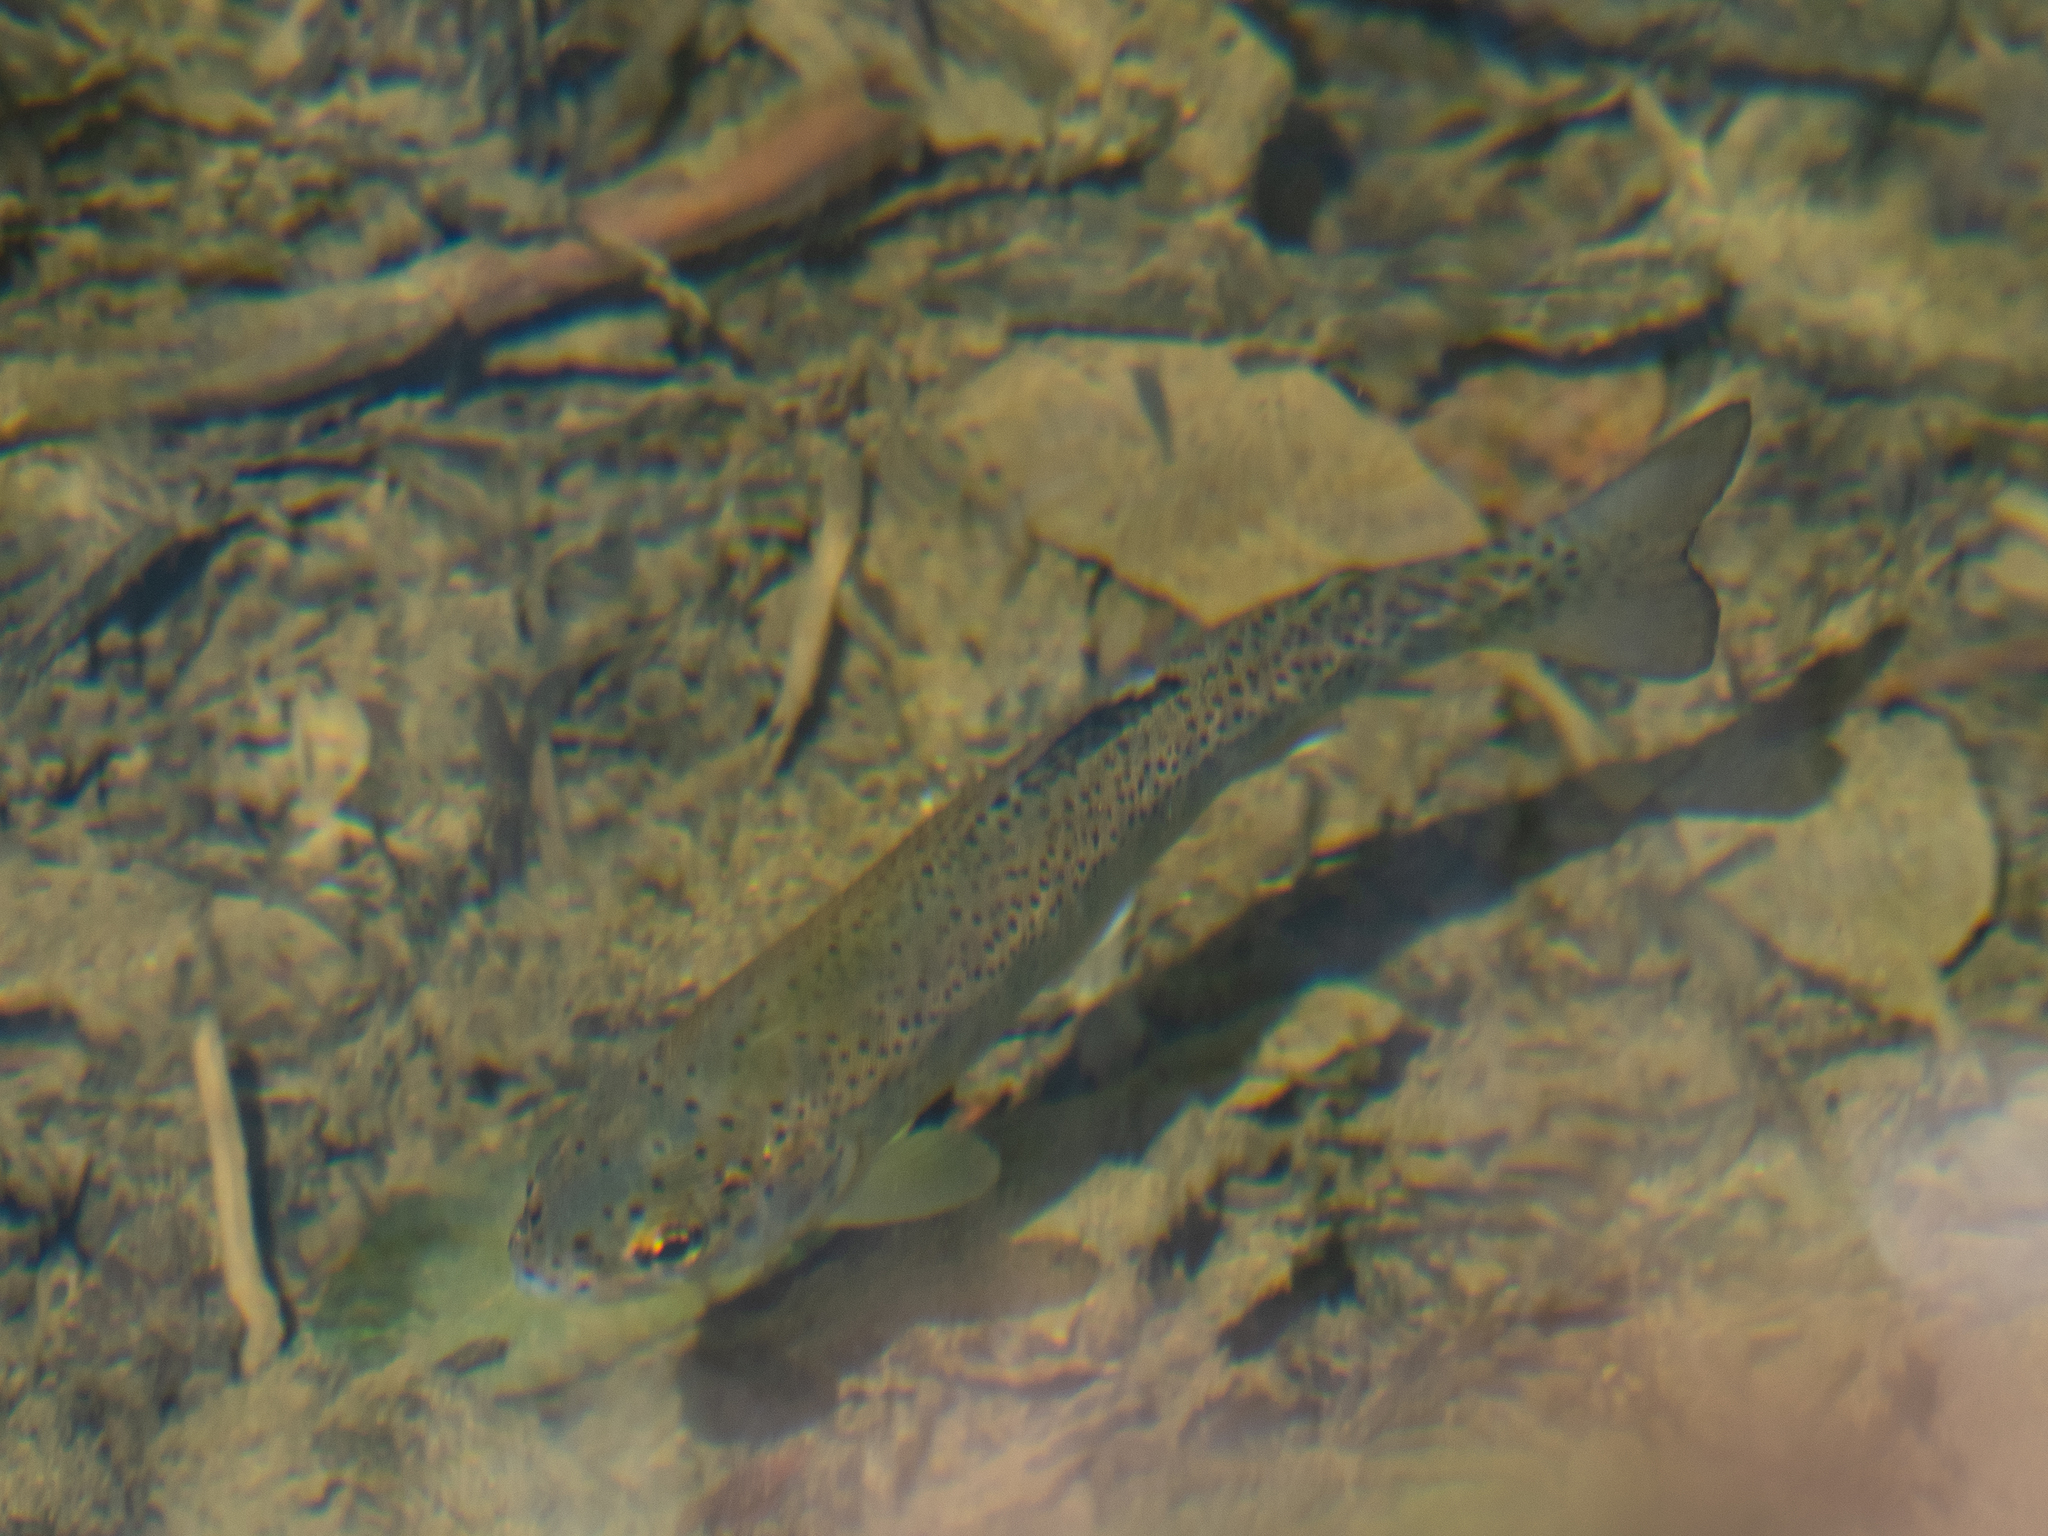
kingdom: Animalia
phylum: Chordata
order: Salmoniformes
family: Salmonidae
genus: Oncorhynchus
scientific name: Oncorhynchus mykiss
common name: Rainbow trout
